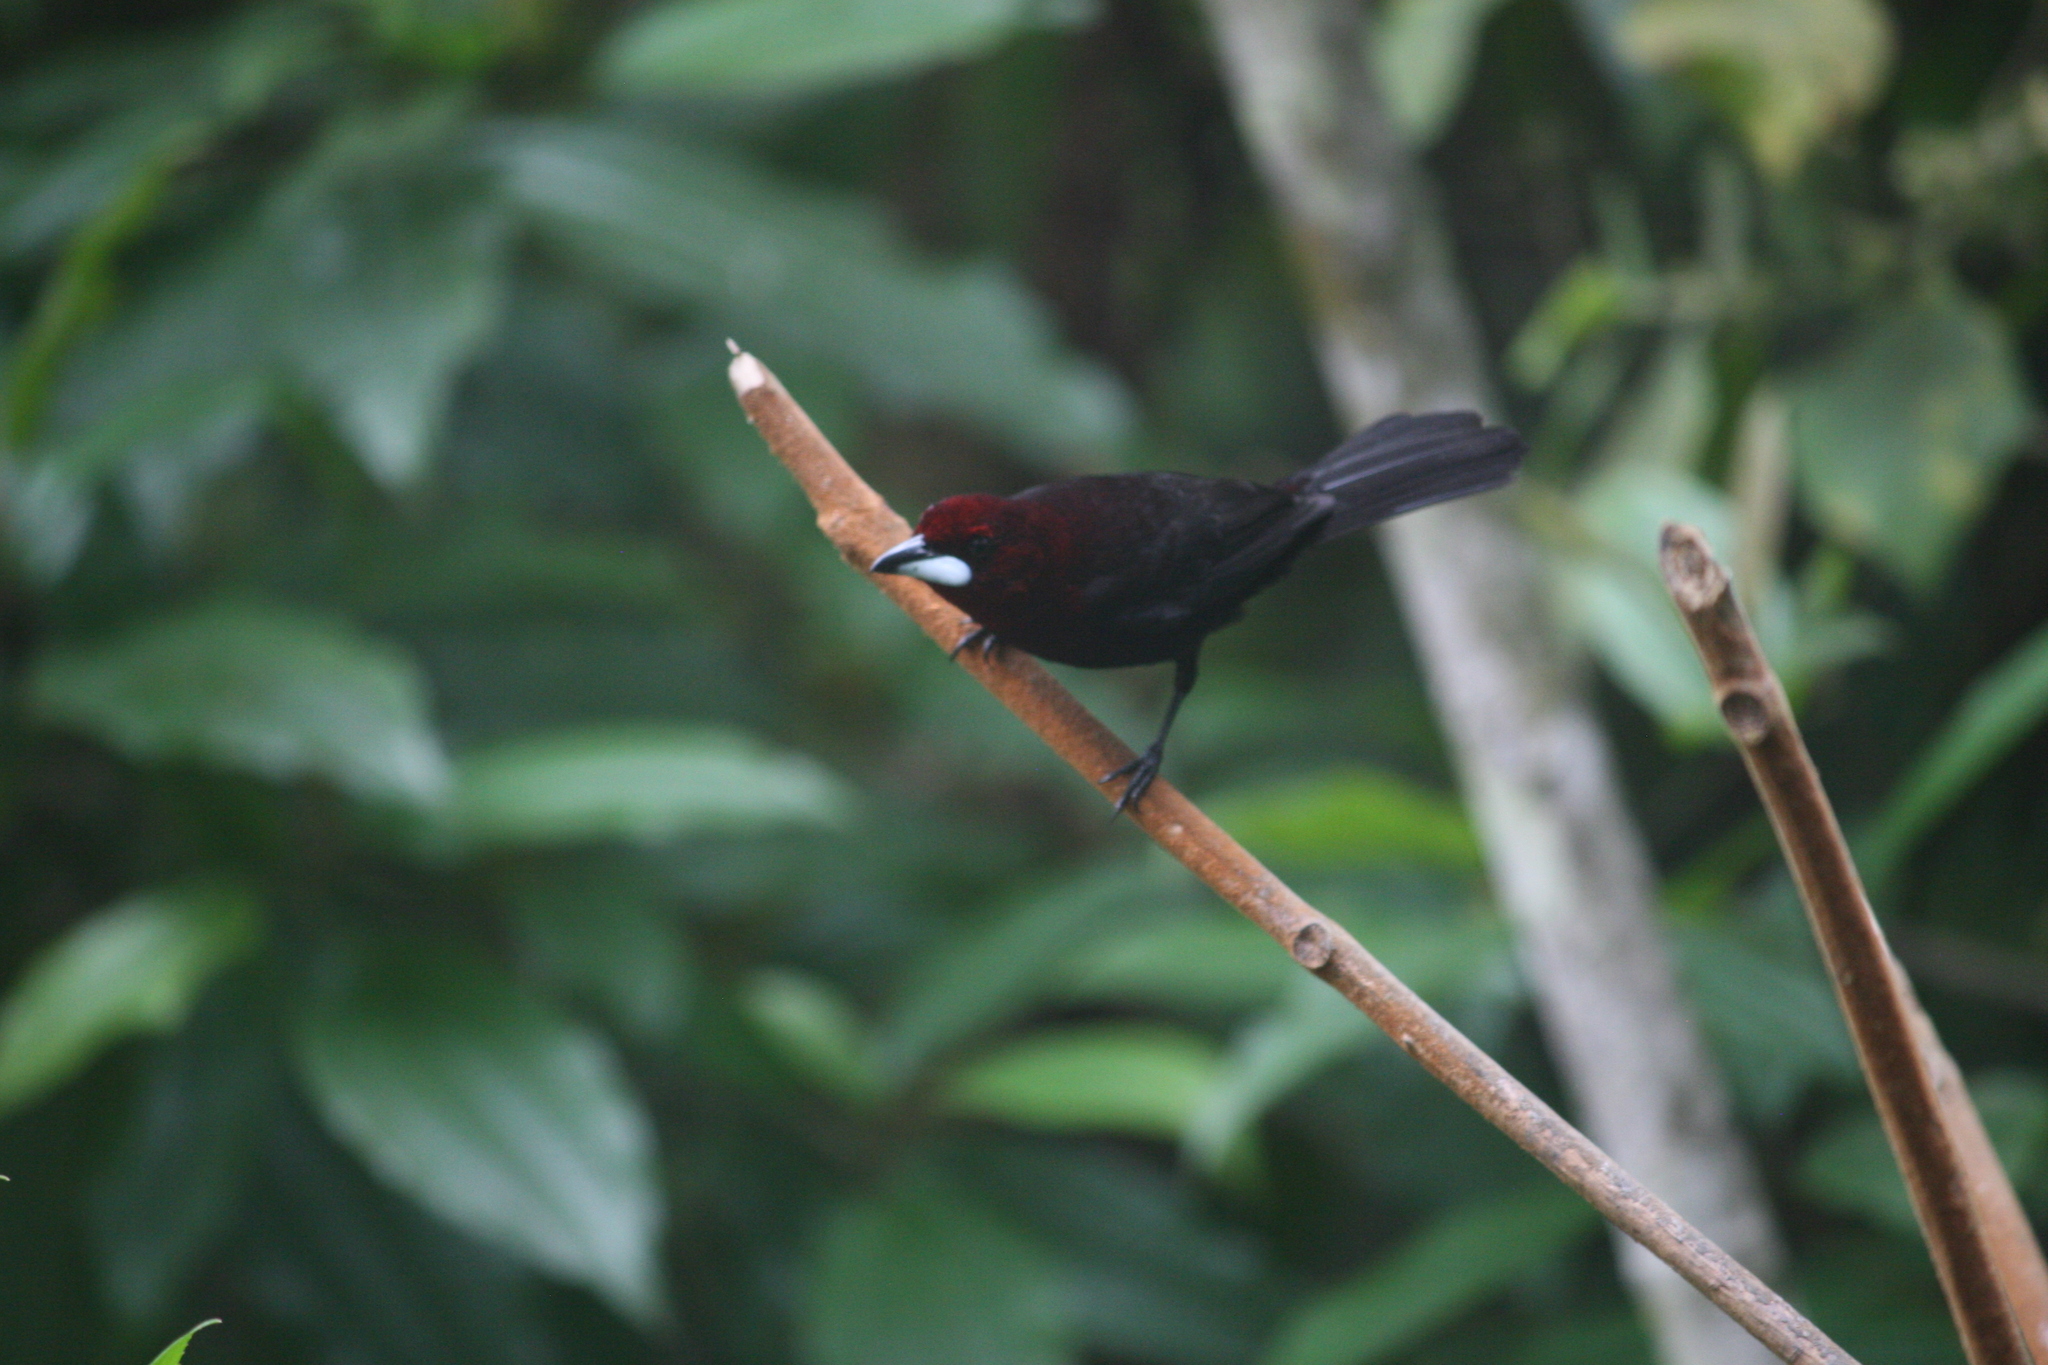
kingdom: Animalia
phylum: Chordata
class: Aves
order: Passeriformes
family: Thraupidae
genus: Ramphocelus
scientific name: Ramphocelus carbo
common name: Silver-beaked tanager
